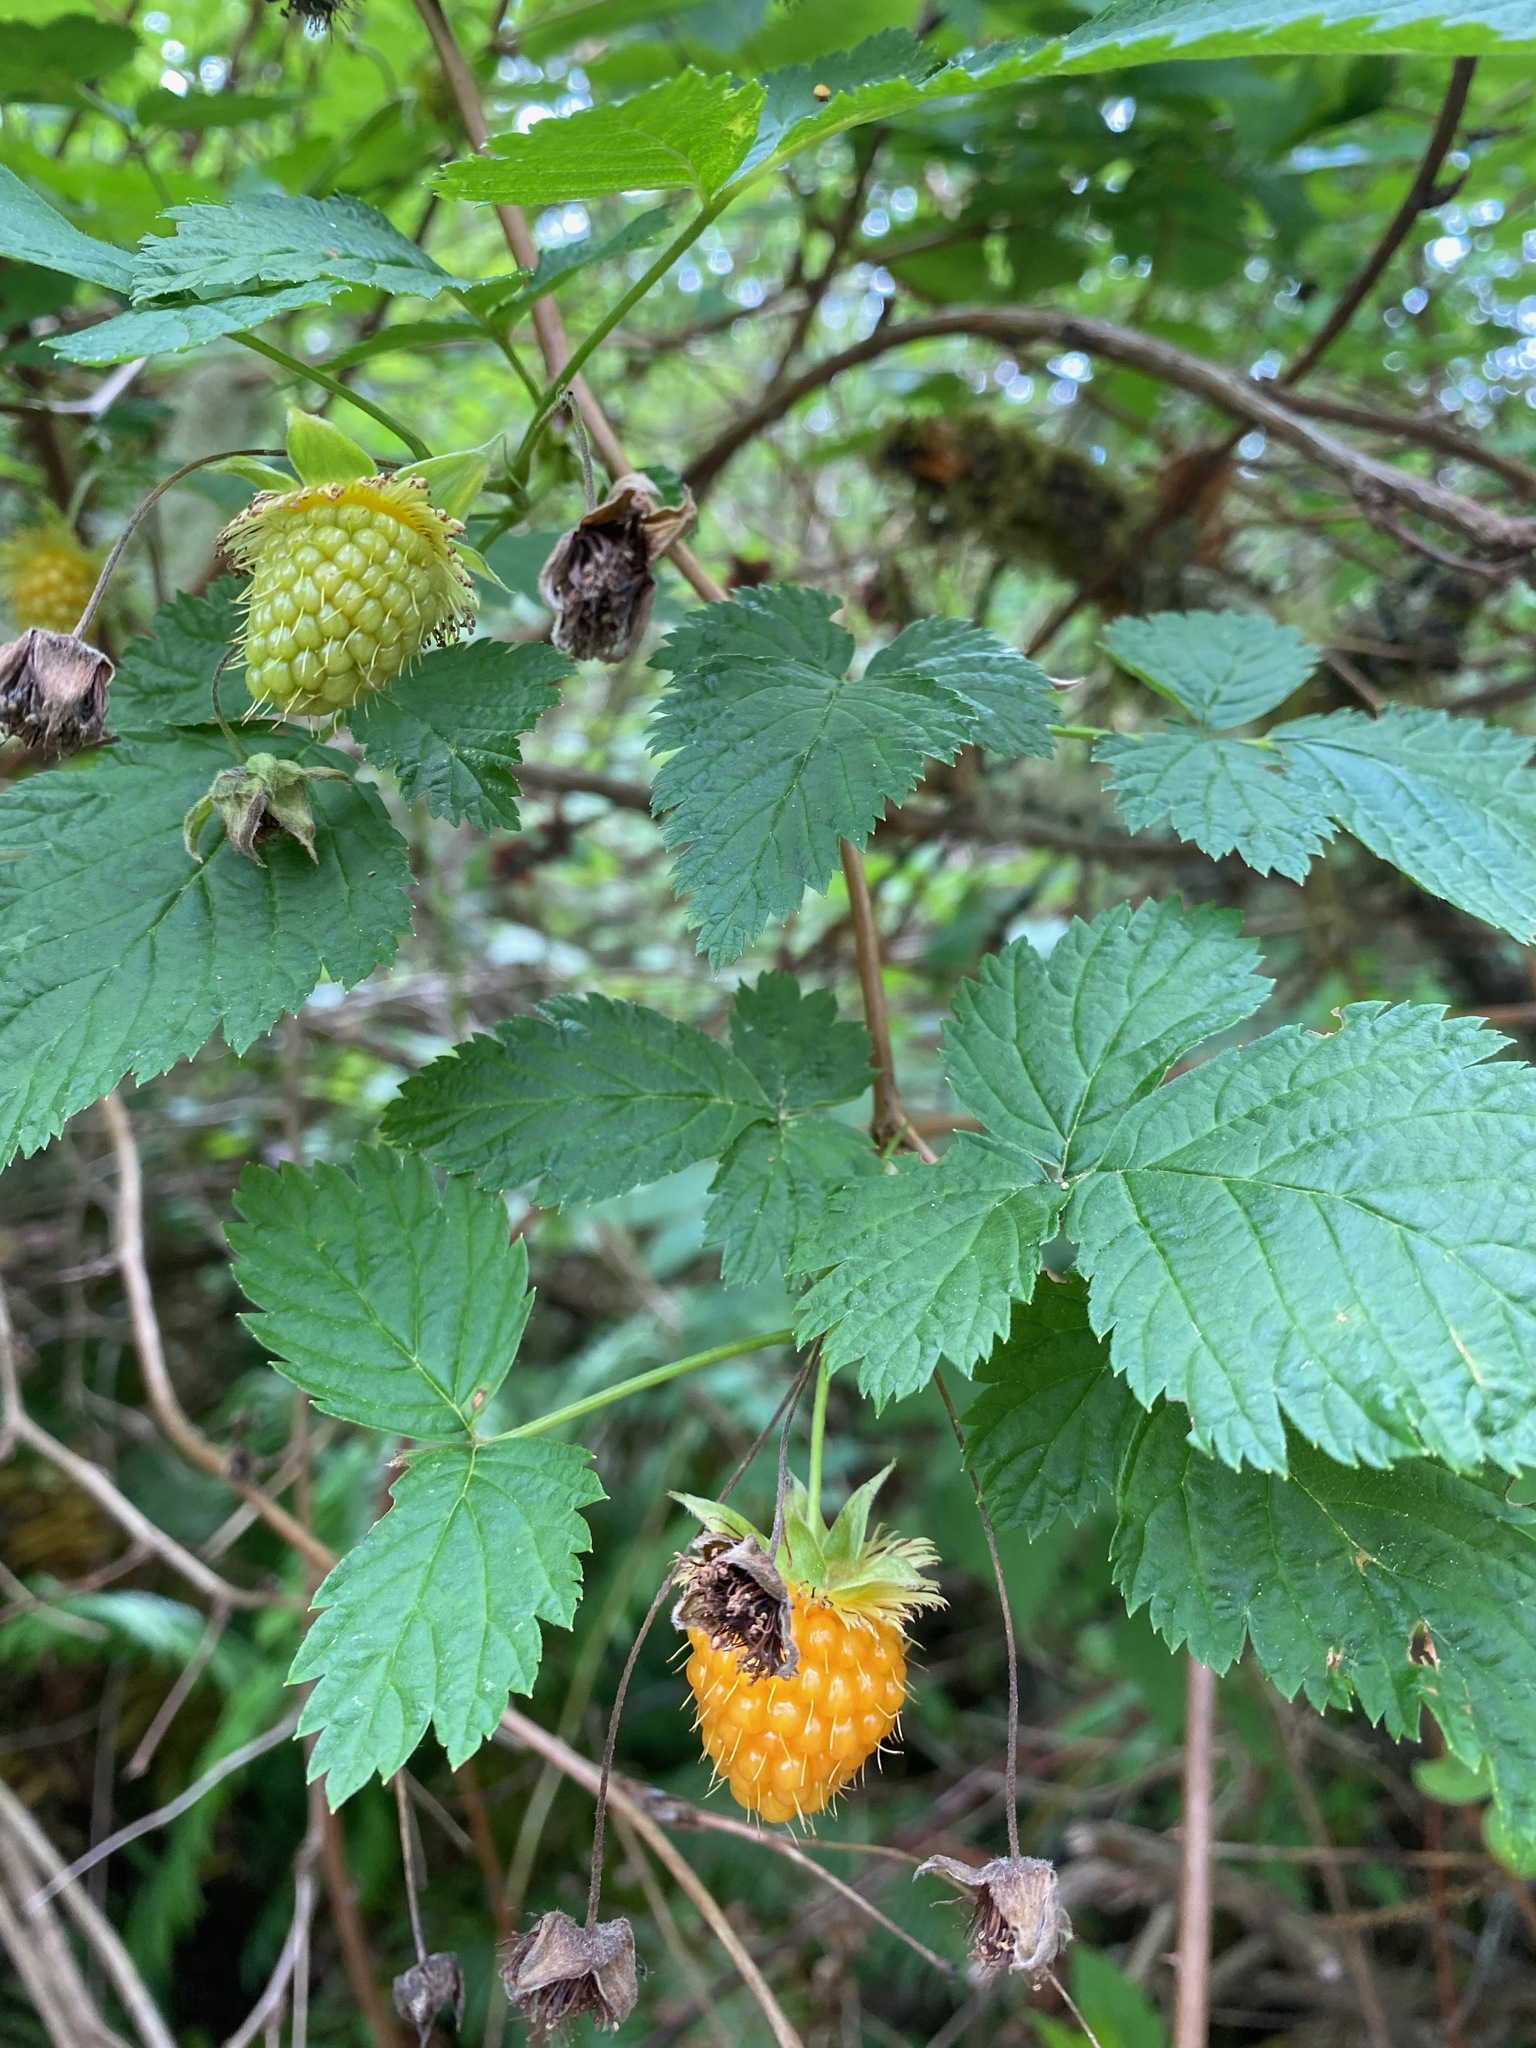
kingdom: Plantae
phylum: Tracheophyta
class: Magnoliopsida
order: Rosales
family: Rosaceae
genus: Rubus
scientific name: Rubus spectabilis
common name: Salmonberry
